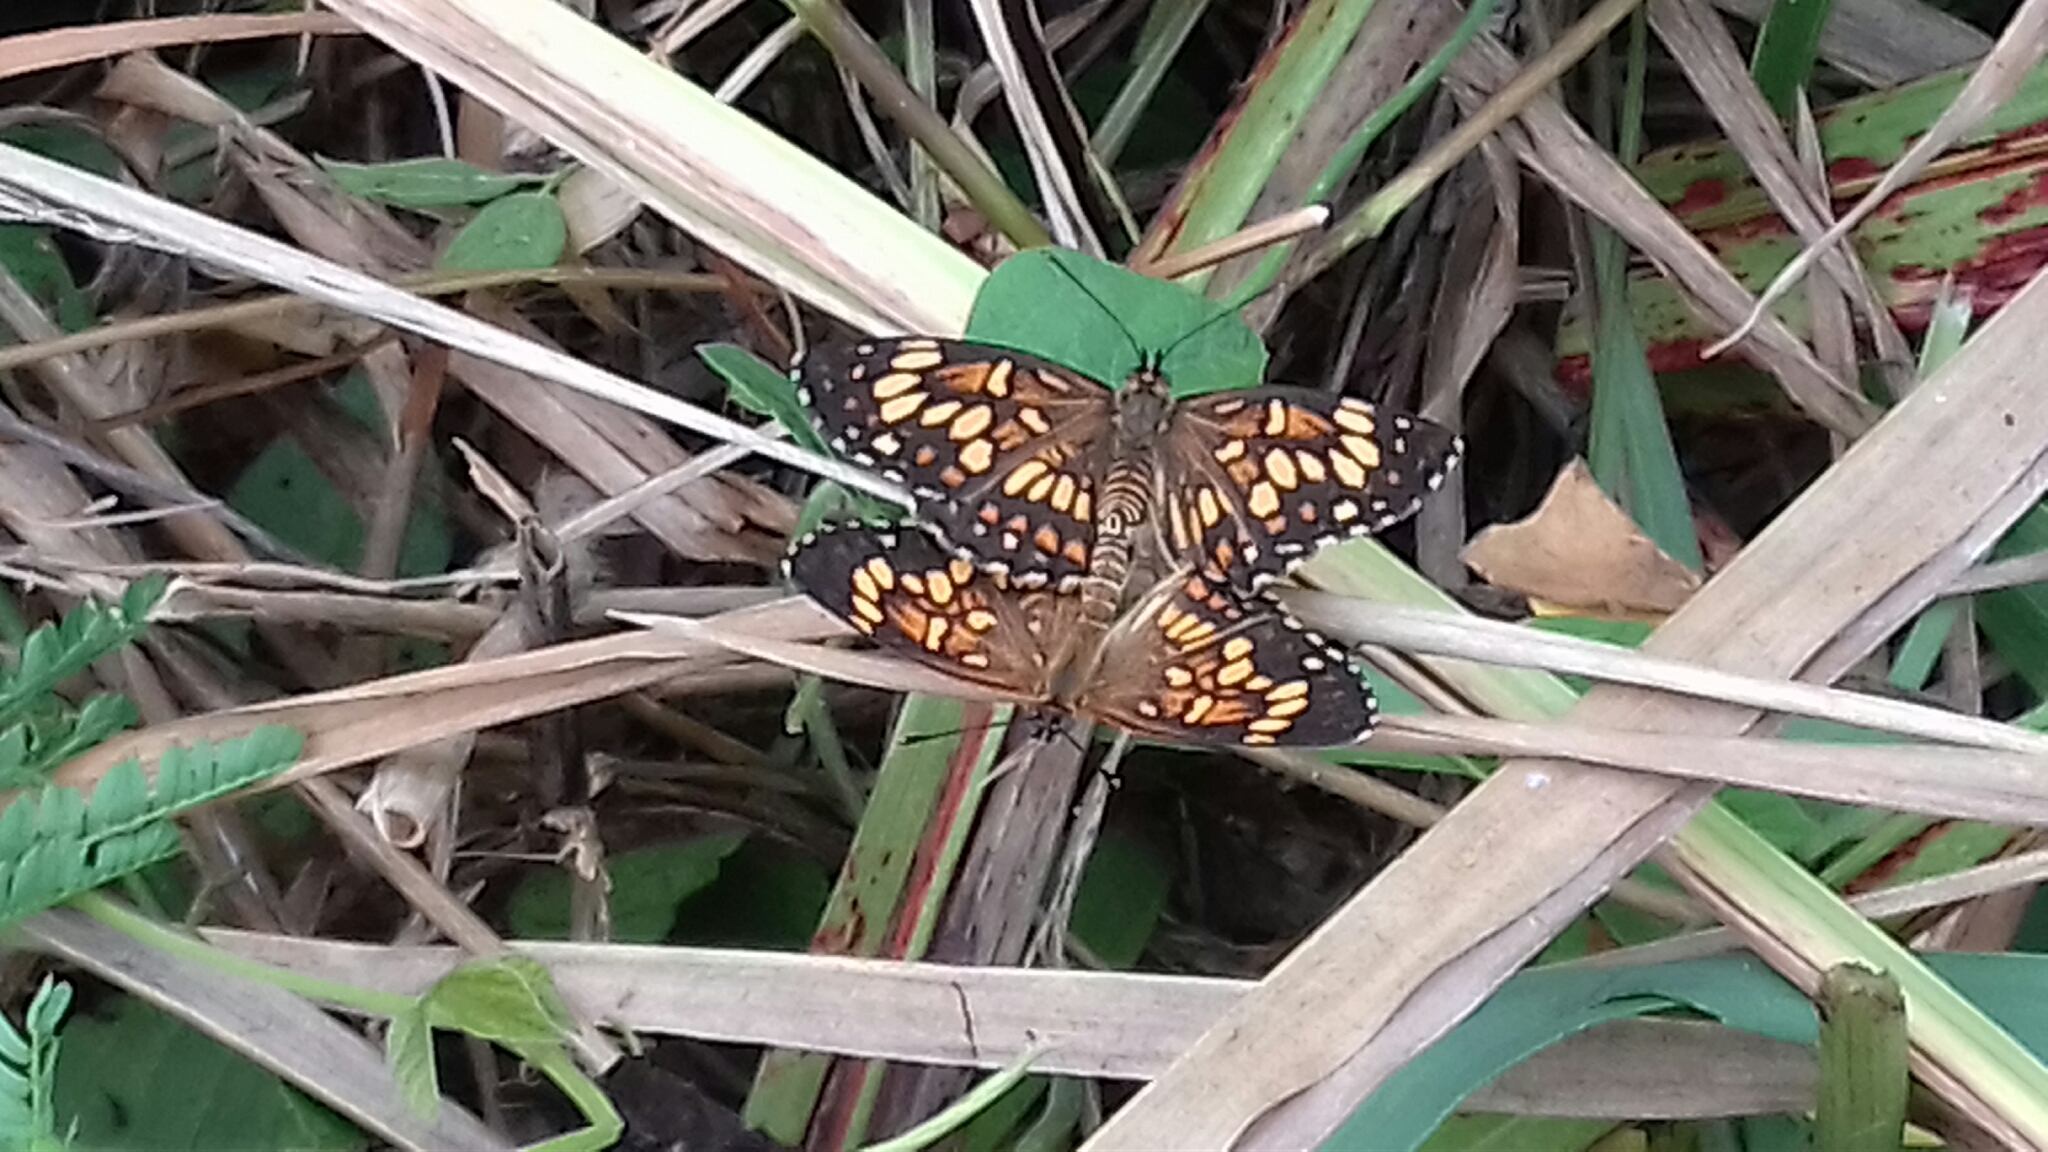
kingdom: Animalia
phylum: Arthropoda
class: Insecta
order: Lepidoptera
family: Nymphalidae
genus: Thessalia
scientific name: Thessalia theona
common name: Nymphalid moth
